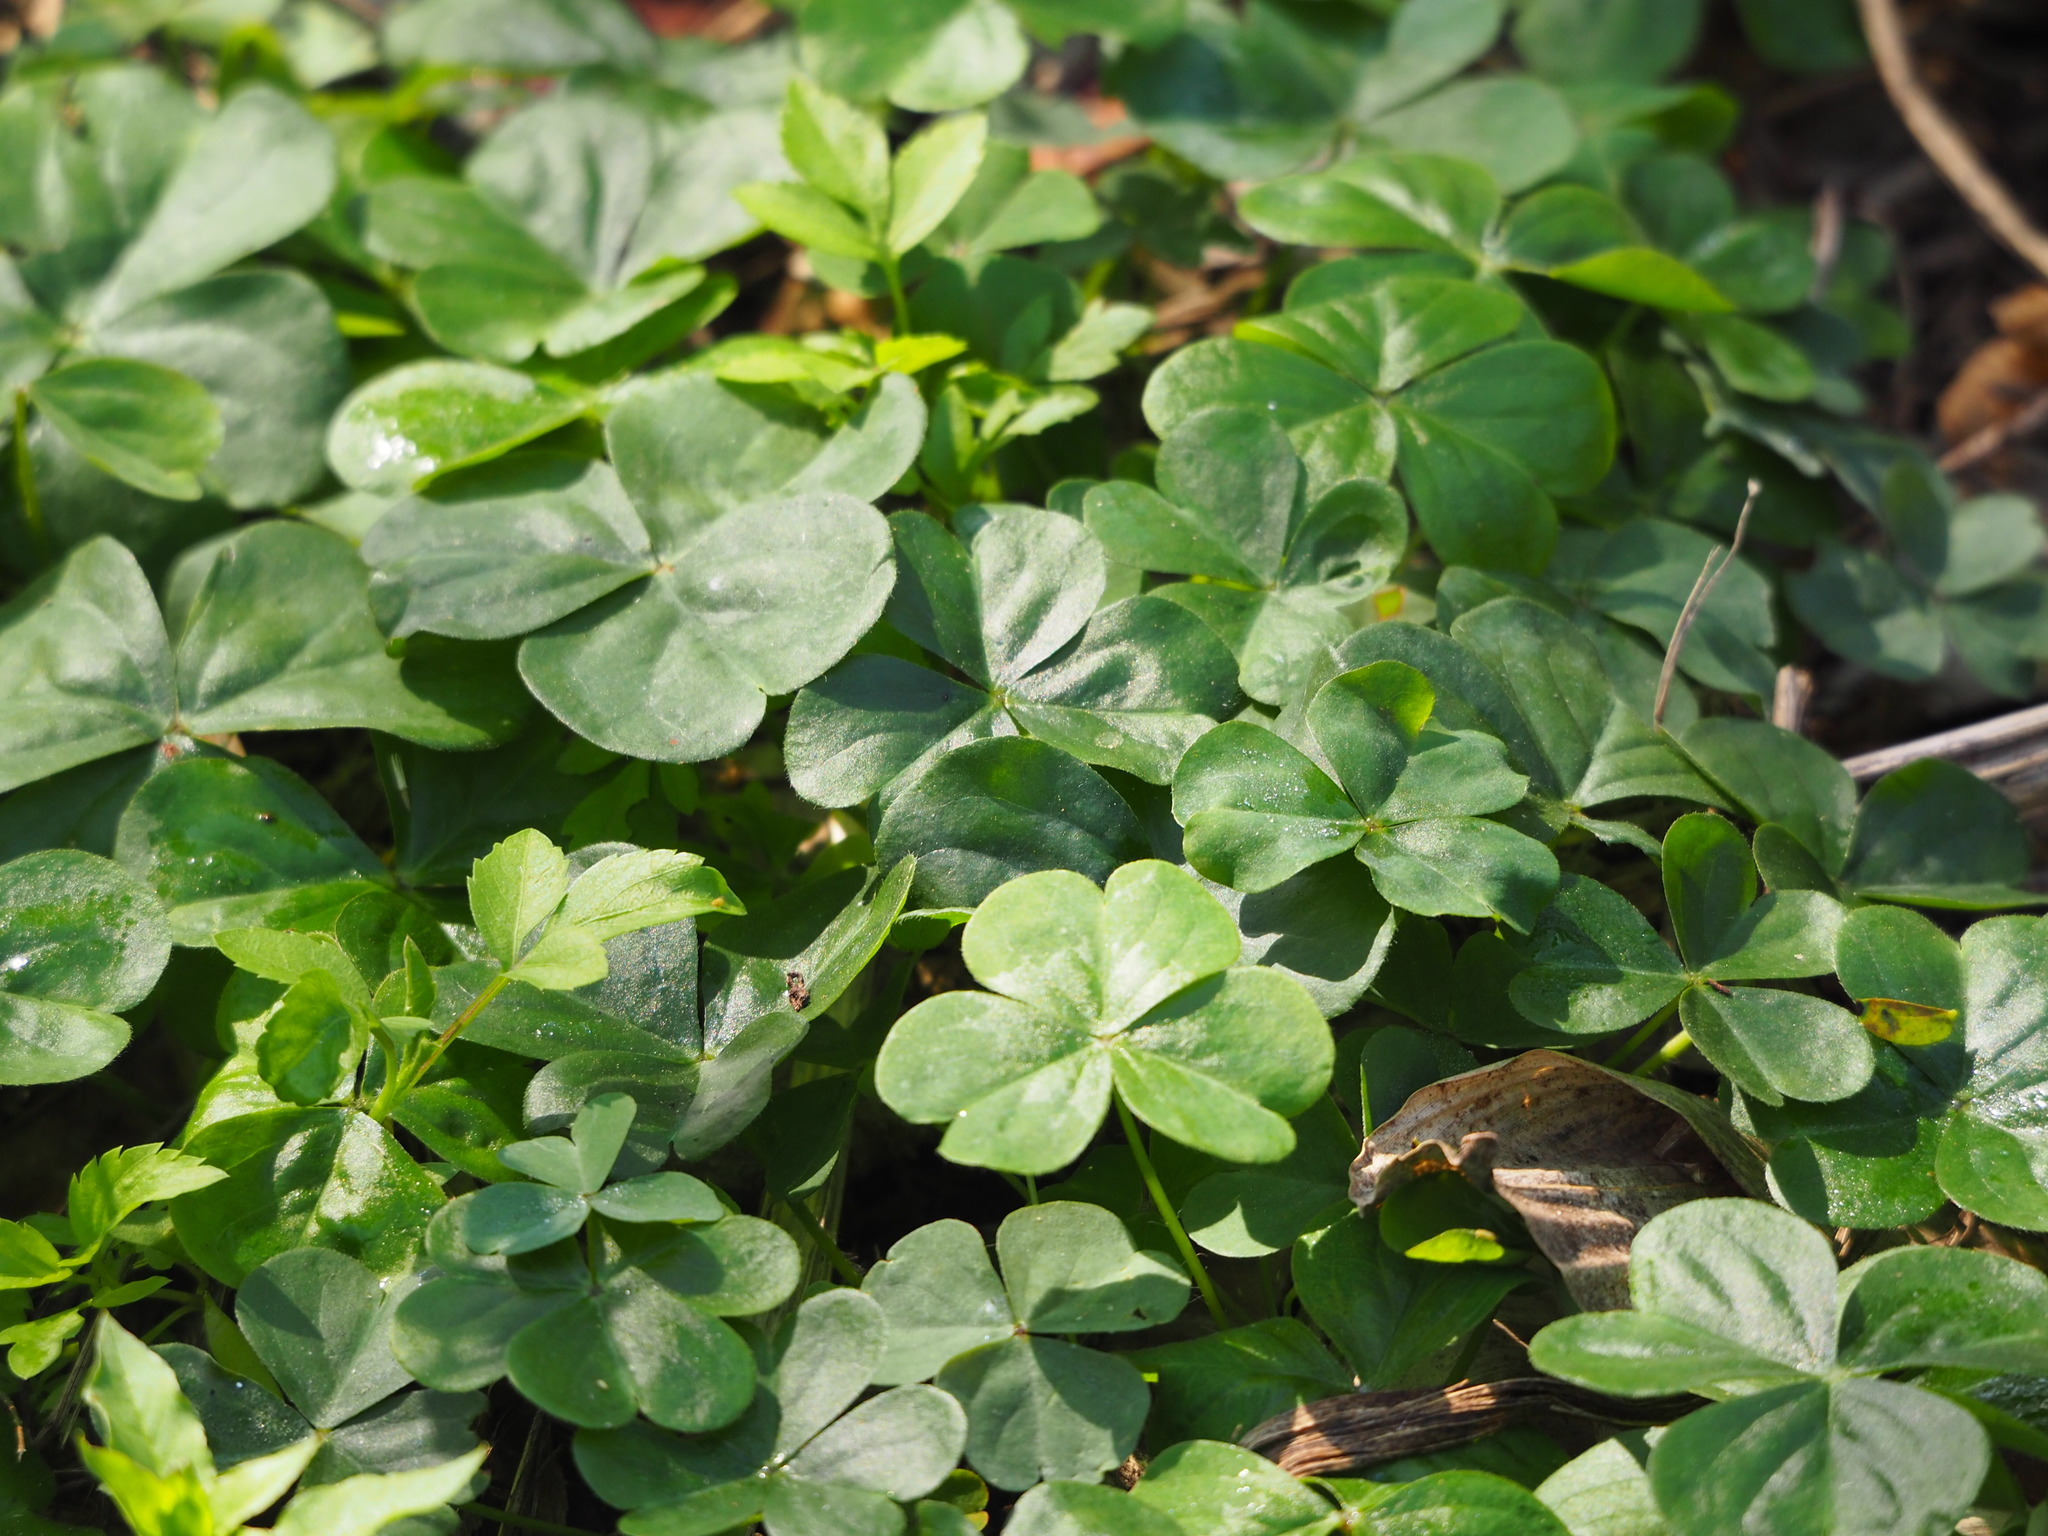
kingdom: Plantae
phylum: Tracheophyta
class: Magnoliopsida
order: Oxalidales
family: Oxalidaceae
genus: Oxalis
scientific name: Oxalis debilis
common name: Large-flowered pink-sorrel
